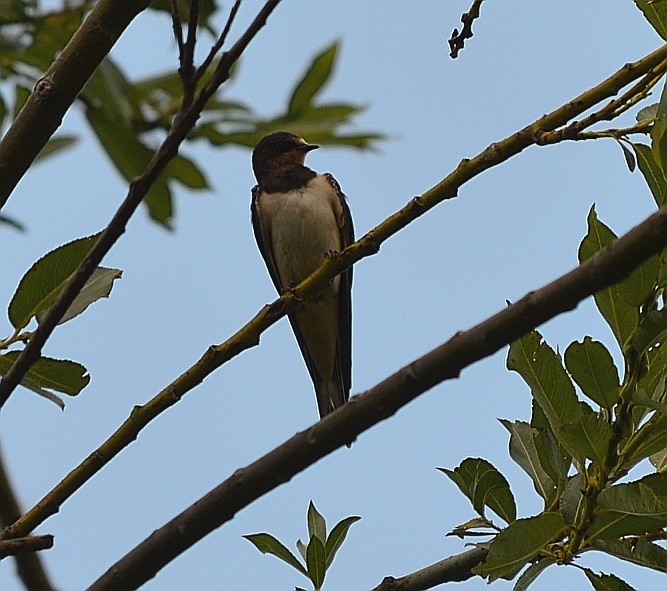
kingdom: Animalia
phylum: Chordata
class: Aves
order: Passeriformes
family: Hirundinidae
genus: Hirundo
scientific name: Hirundo rustica
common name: Barn swallow
